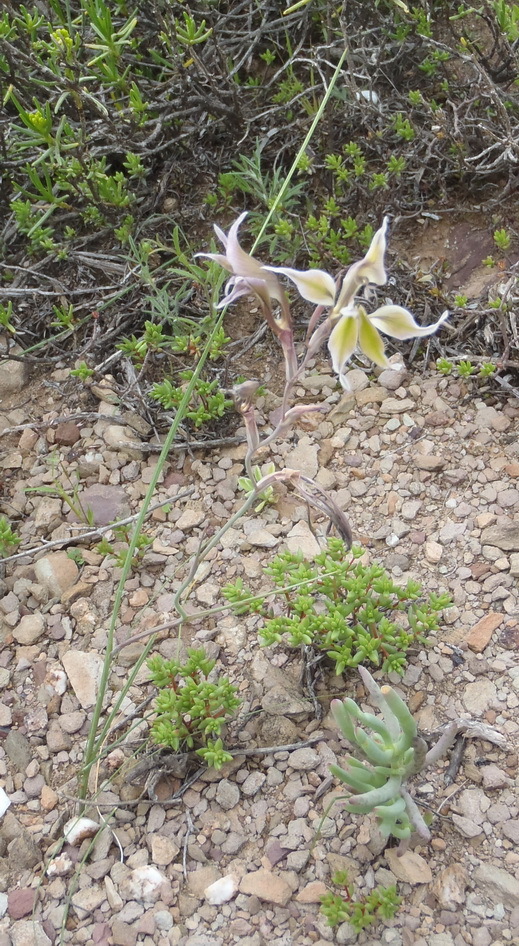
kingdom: Plantae
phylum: Tracheophyta
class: Liliopsida
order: Asparagales
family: Iridaceae
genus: Gladiolus
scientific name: Gladiolus permeabilis
